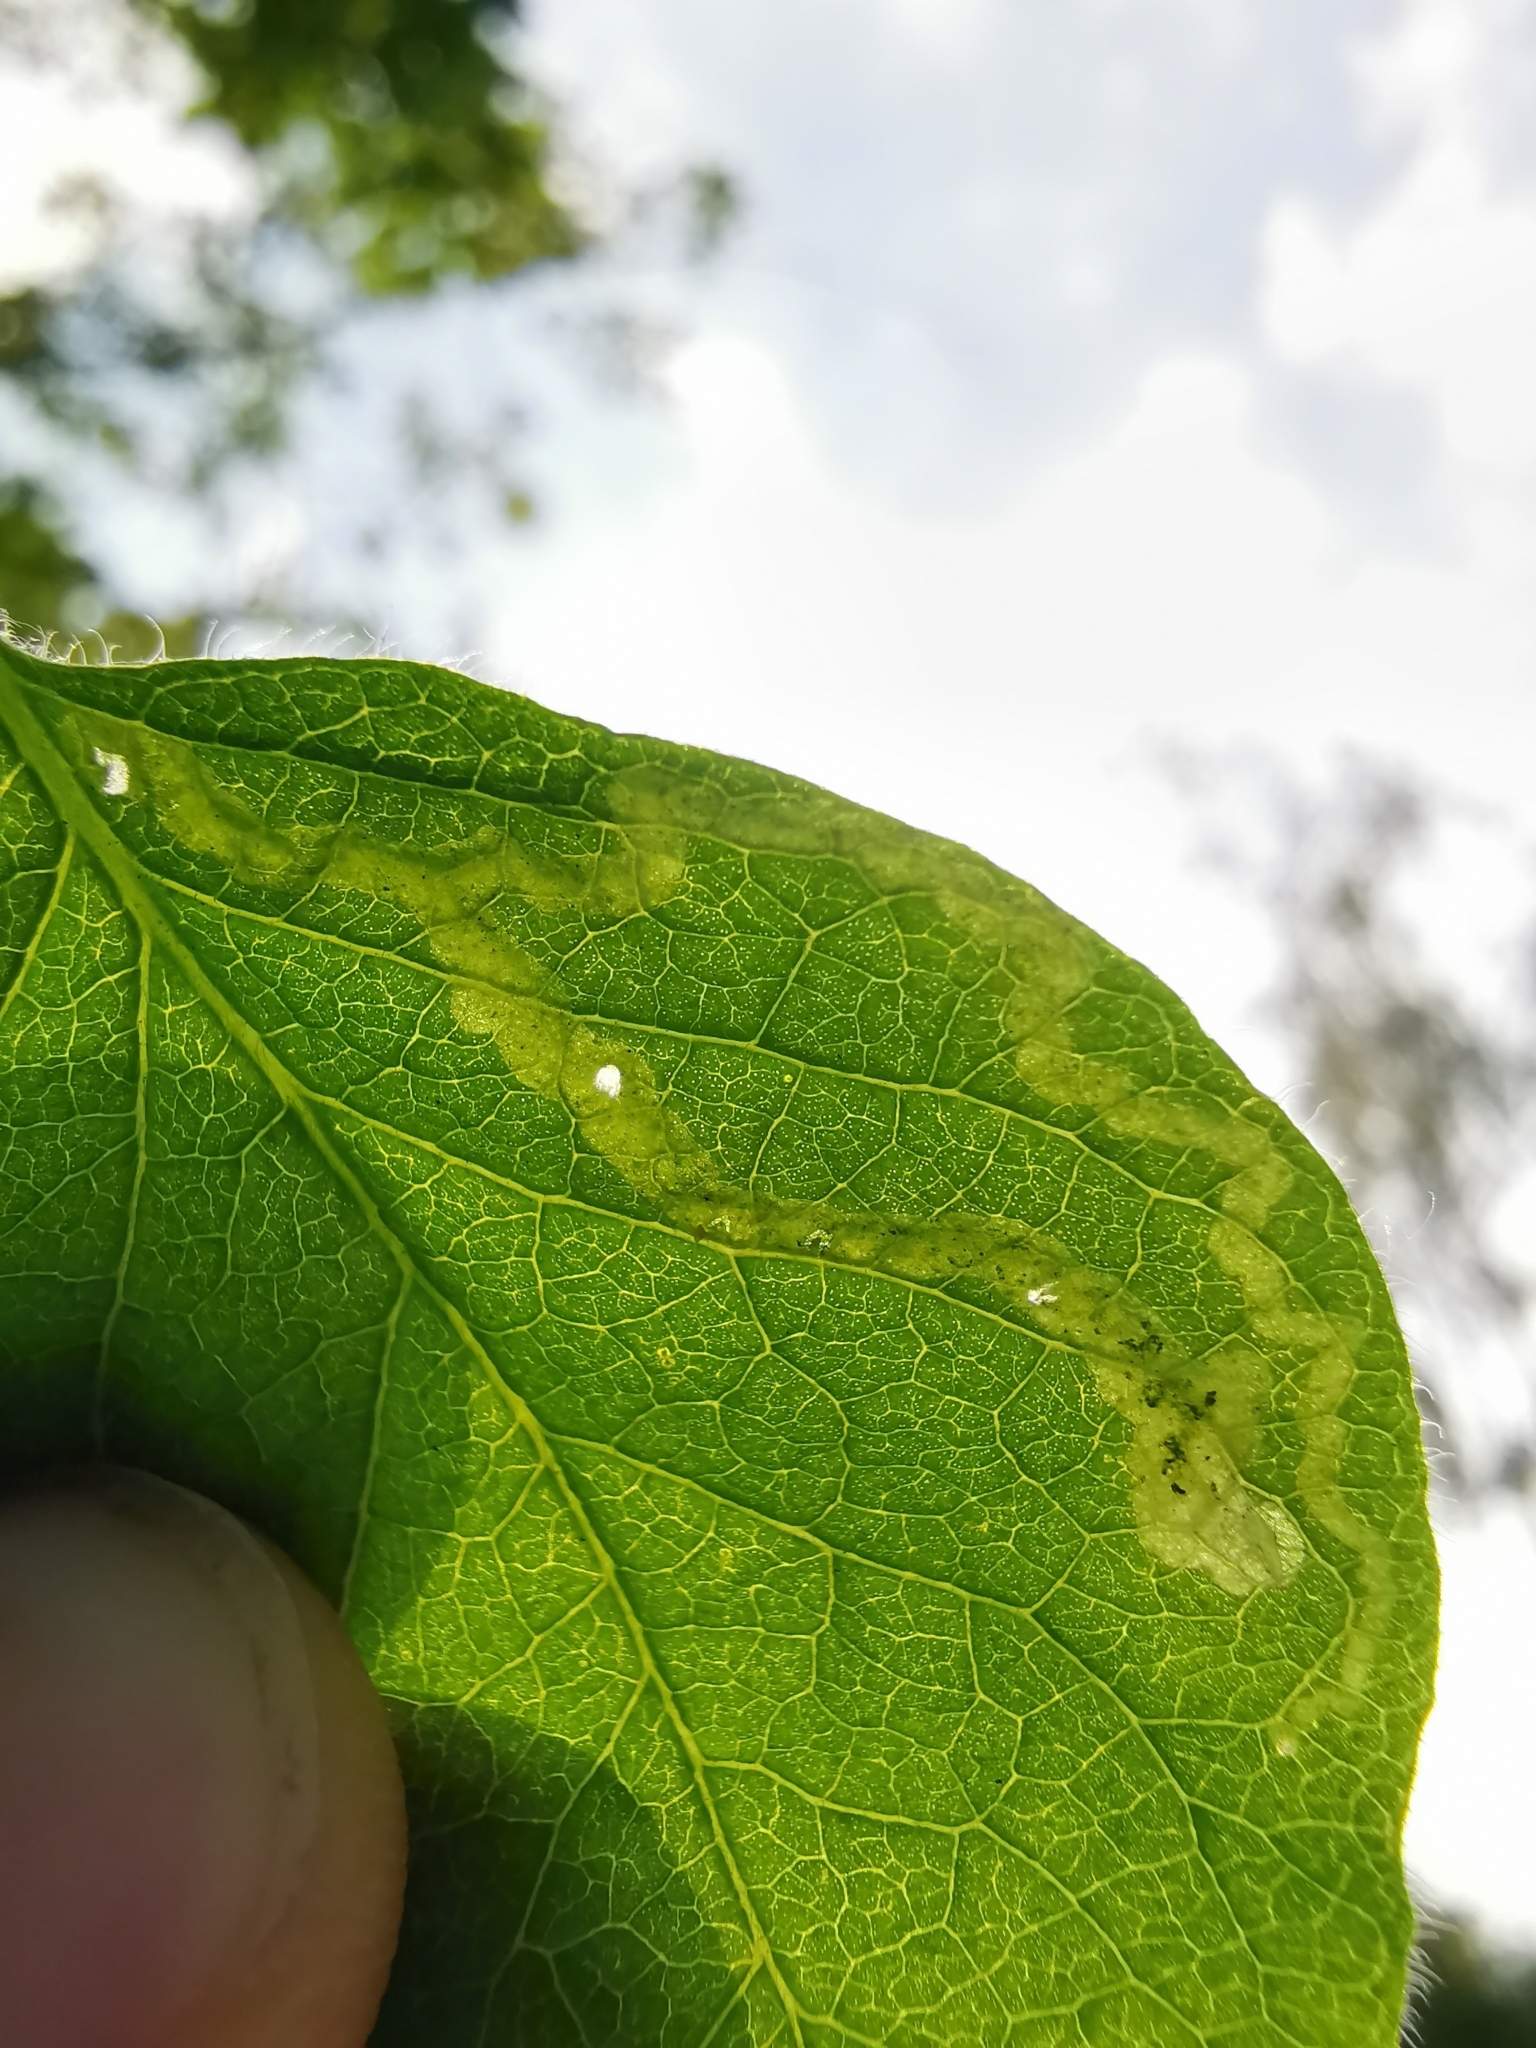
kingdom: Animalia
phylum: Arthropoda
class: Insecta
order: Diptera
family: Agromyzidae
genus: Aulagromyza
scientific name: Aulagromyza luteoscutellata
